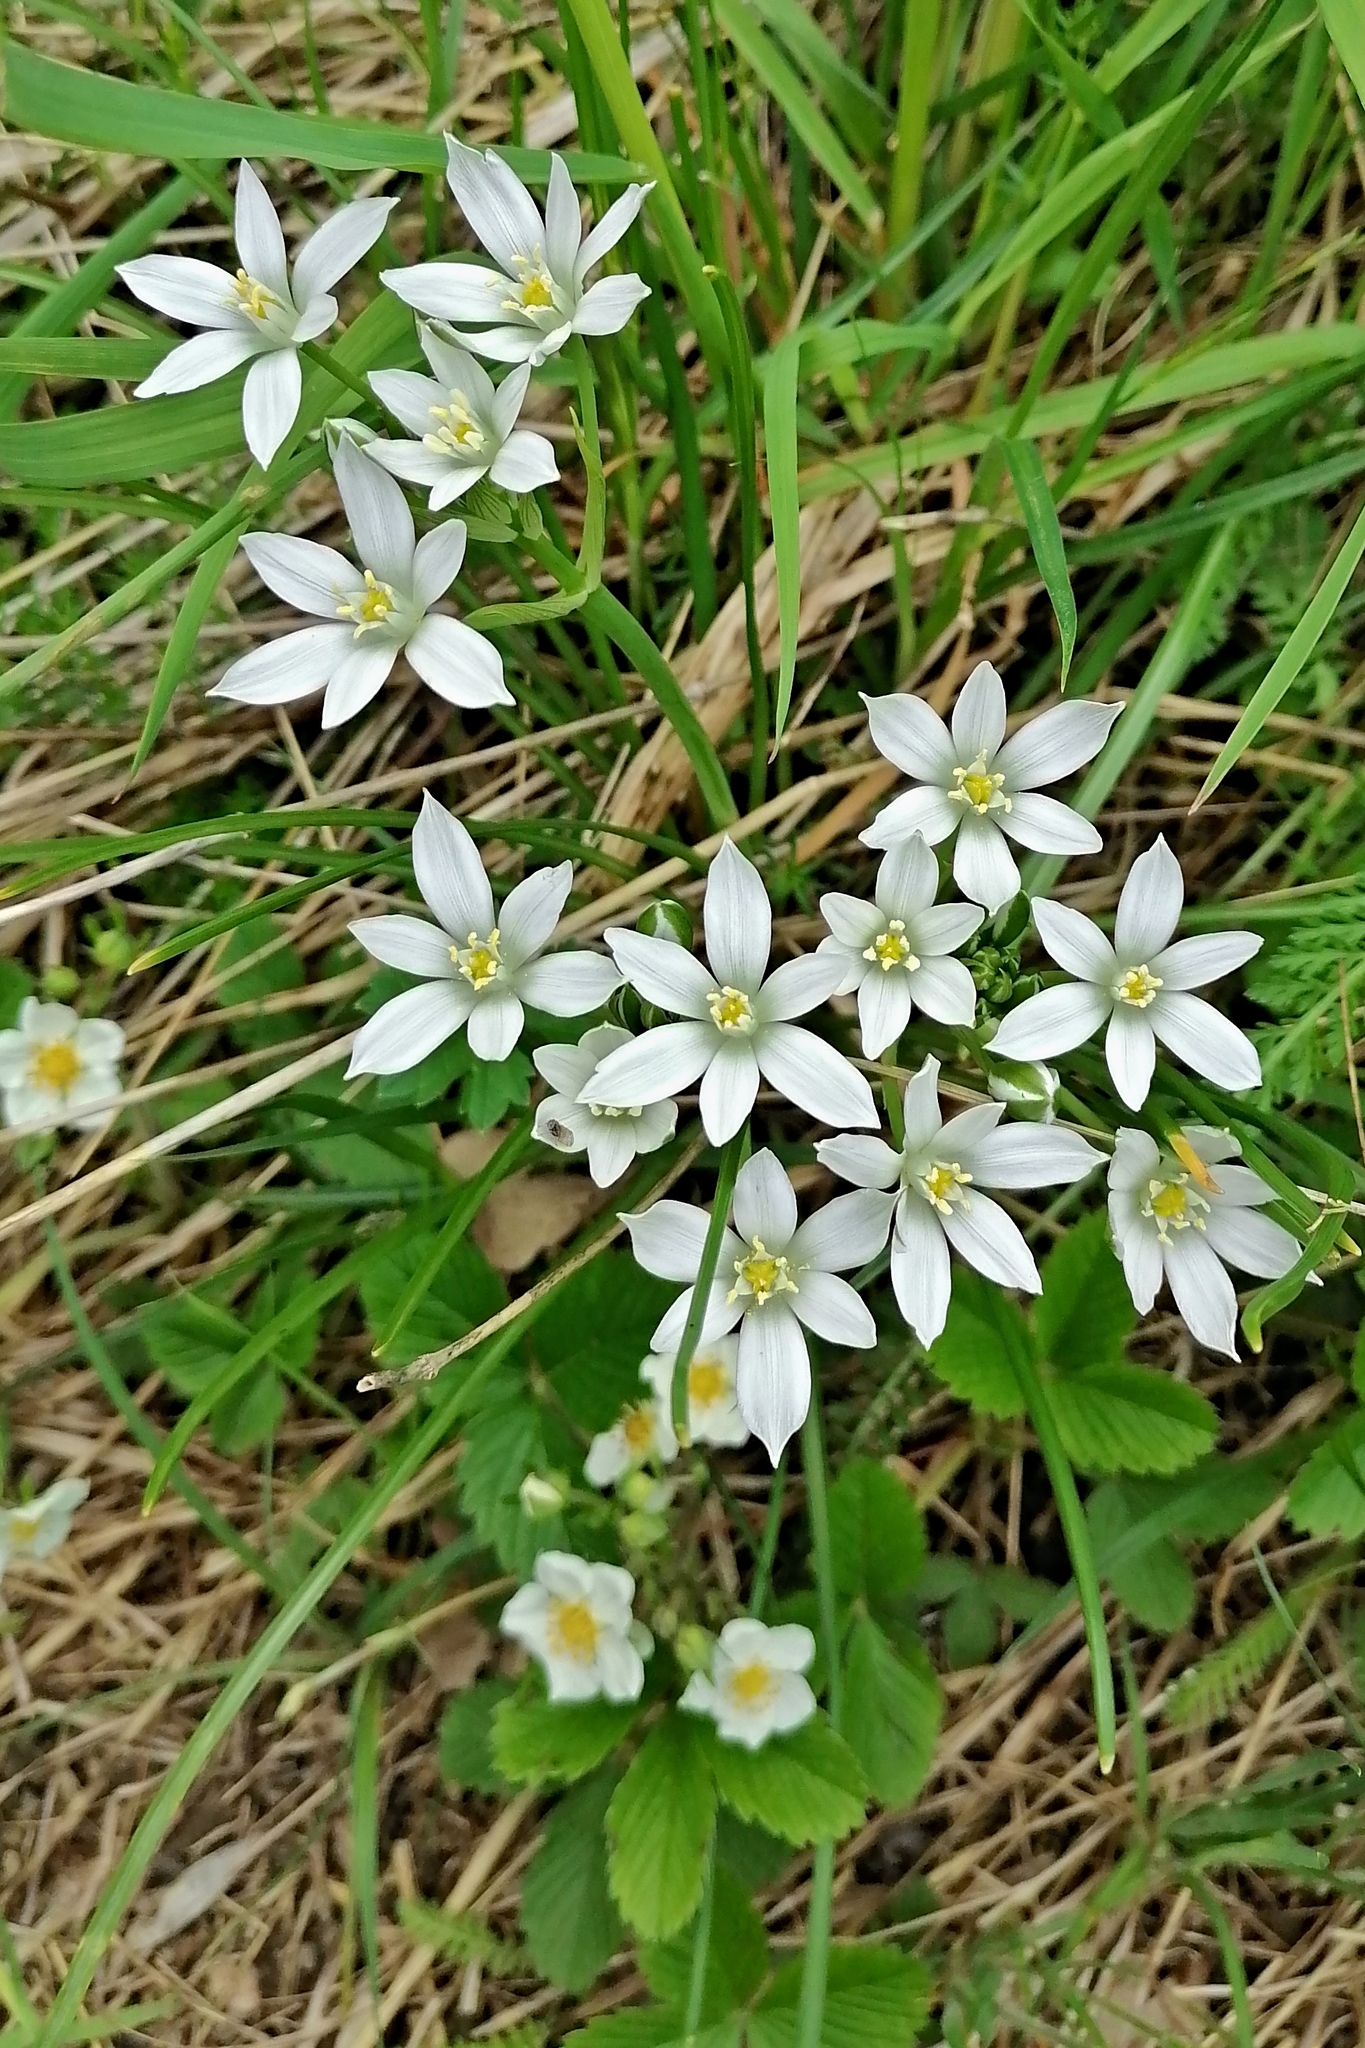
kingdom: Plantae
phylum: Tracheophyta
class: Liliopsida
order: Asparagales
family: Asparagaceae
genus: Ornithogalum
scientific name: Ornithogalum umbellatum
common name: Garden star-of-bethlehem
